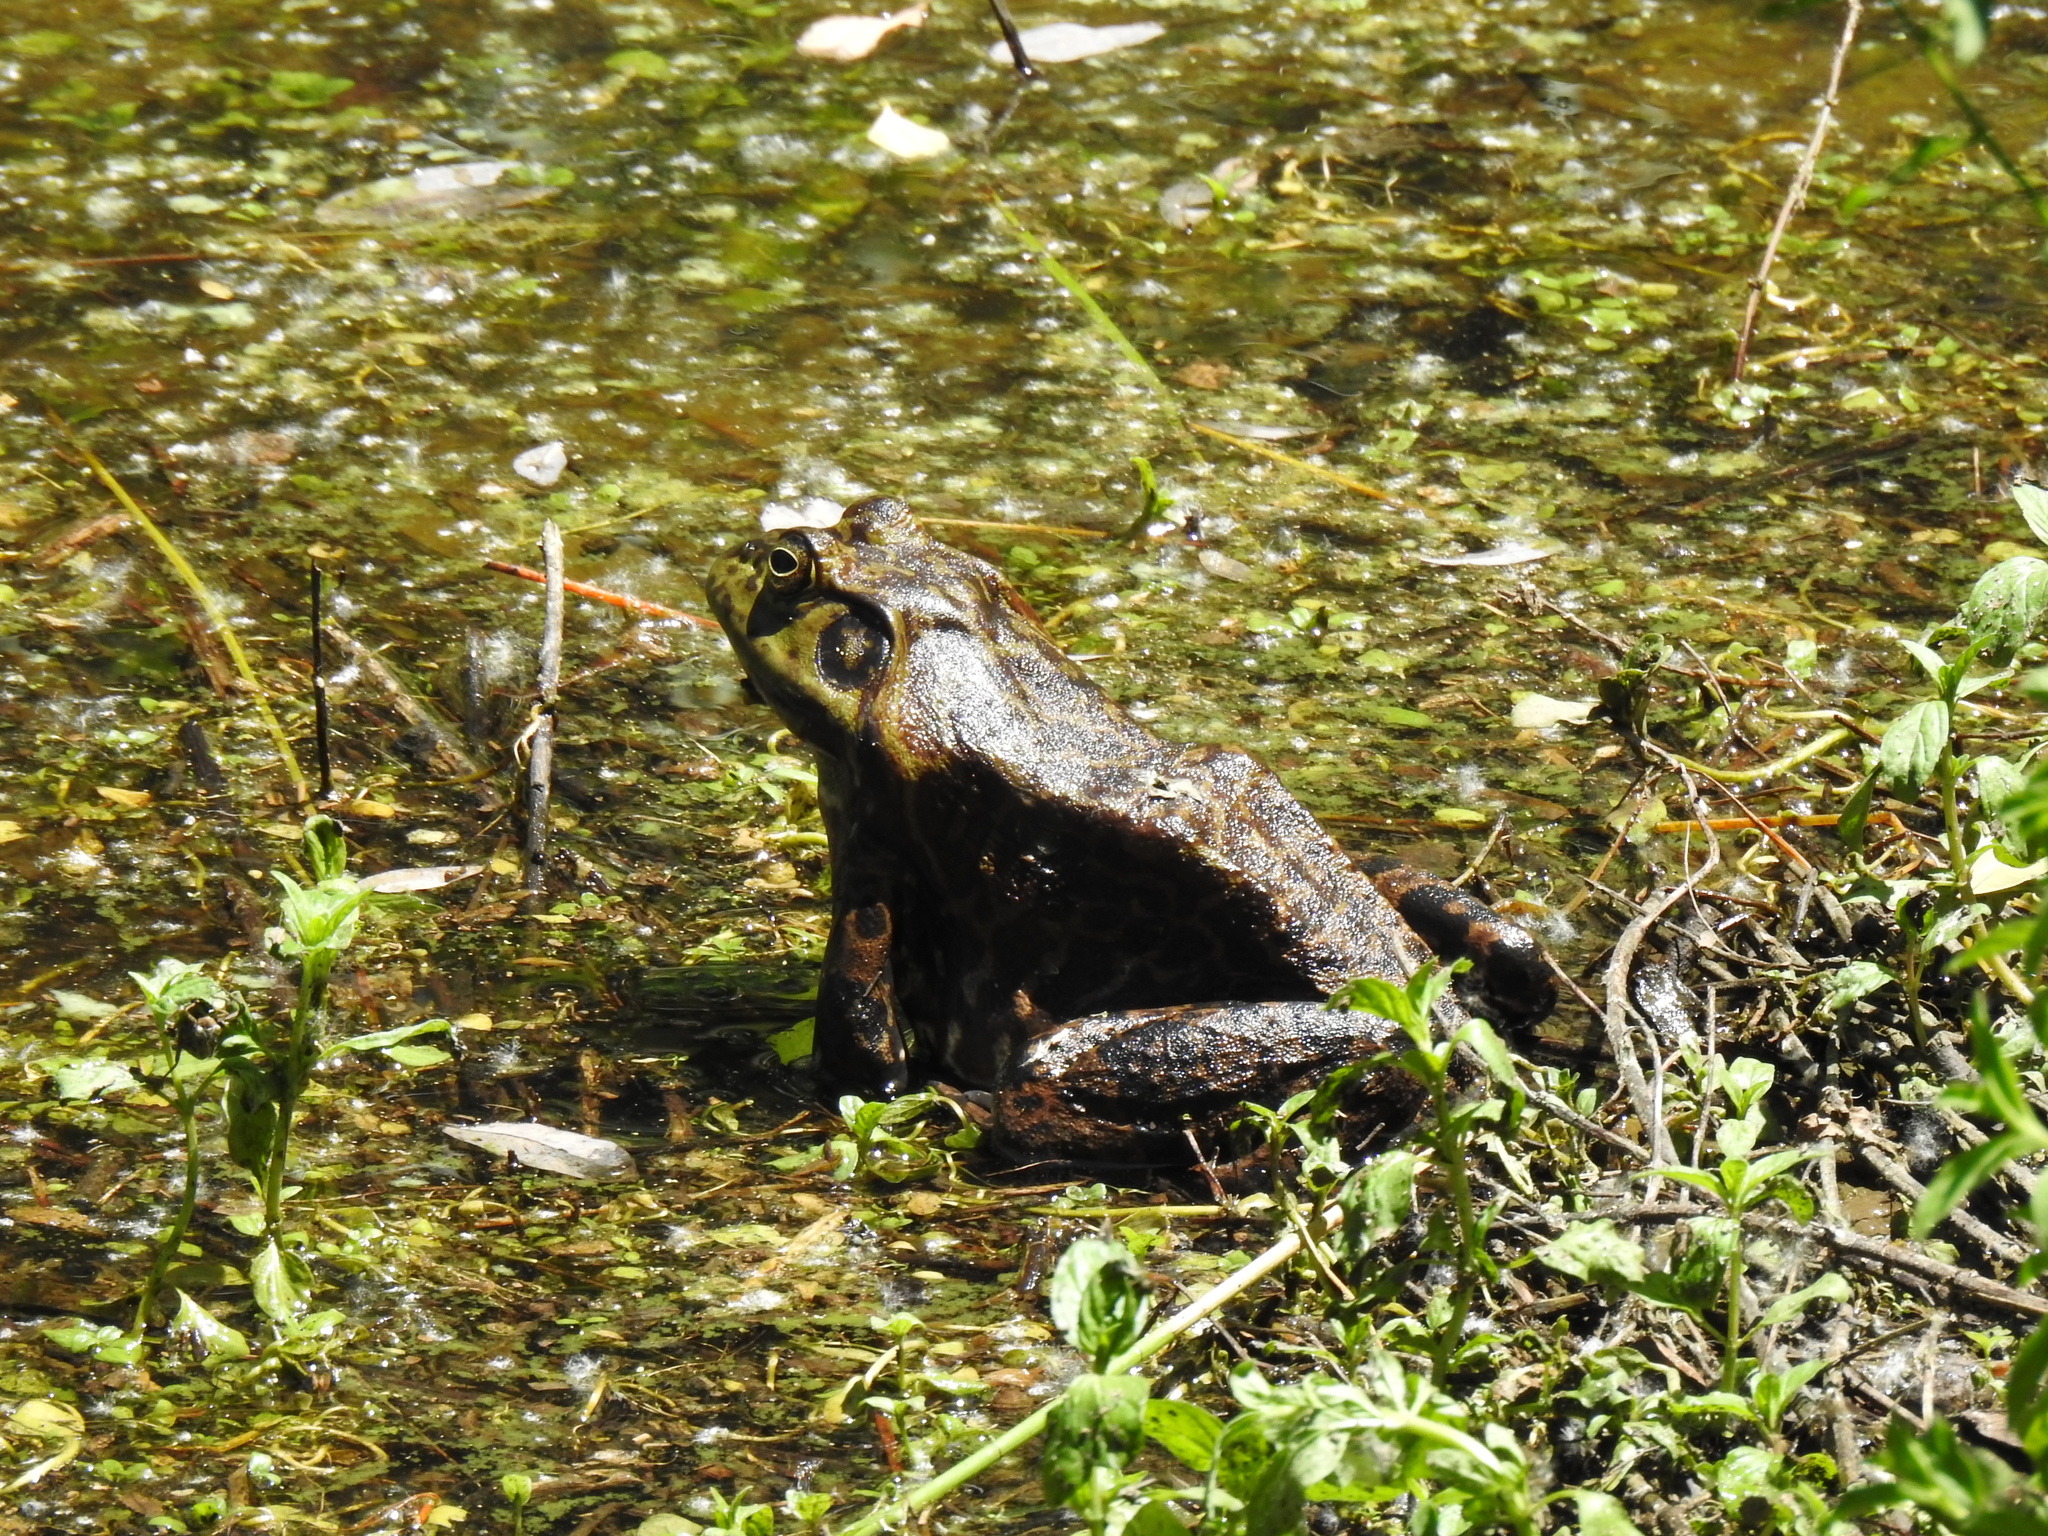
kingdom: Animalia
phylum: Chordata
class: Amphibia
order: Anura
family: Ranidae
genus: Lithobates
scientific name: Lithobates catesbeianus
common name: American bullfrog
